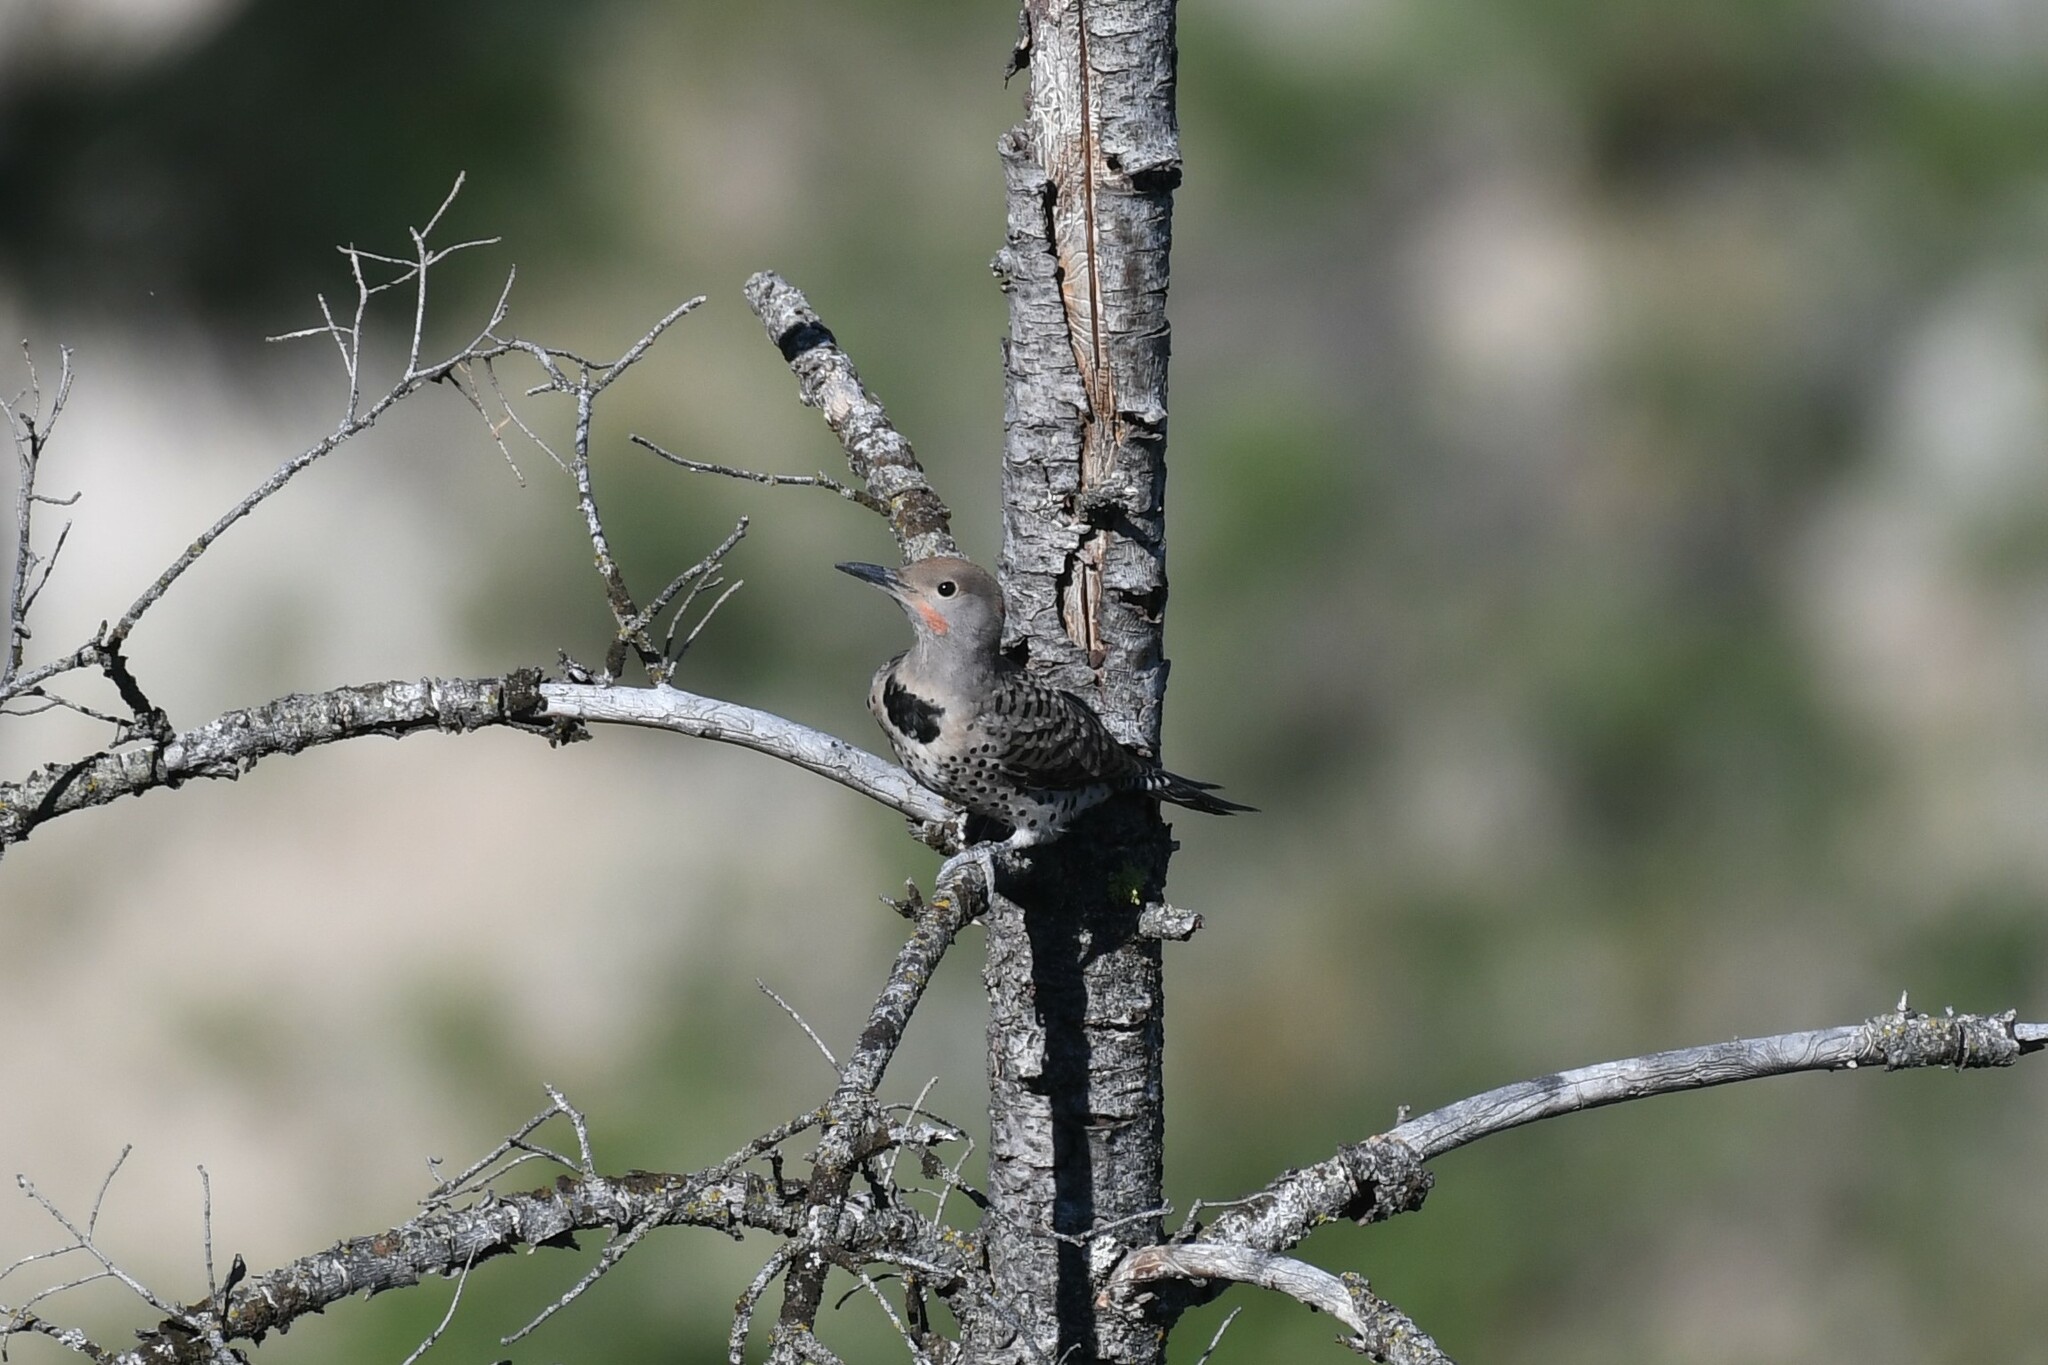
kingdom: Animalia
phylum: Chordata
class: Aves
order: Piciformes
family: Picidae
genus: Colaptes
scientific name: Colaptes auratus
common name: Northern flicker
